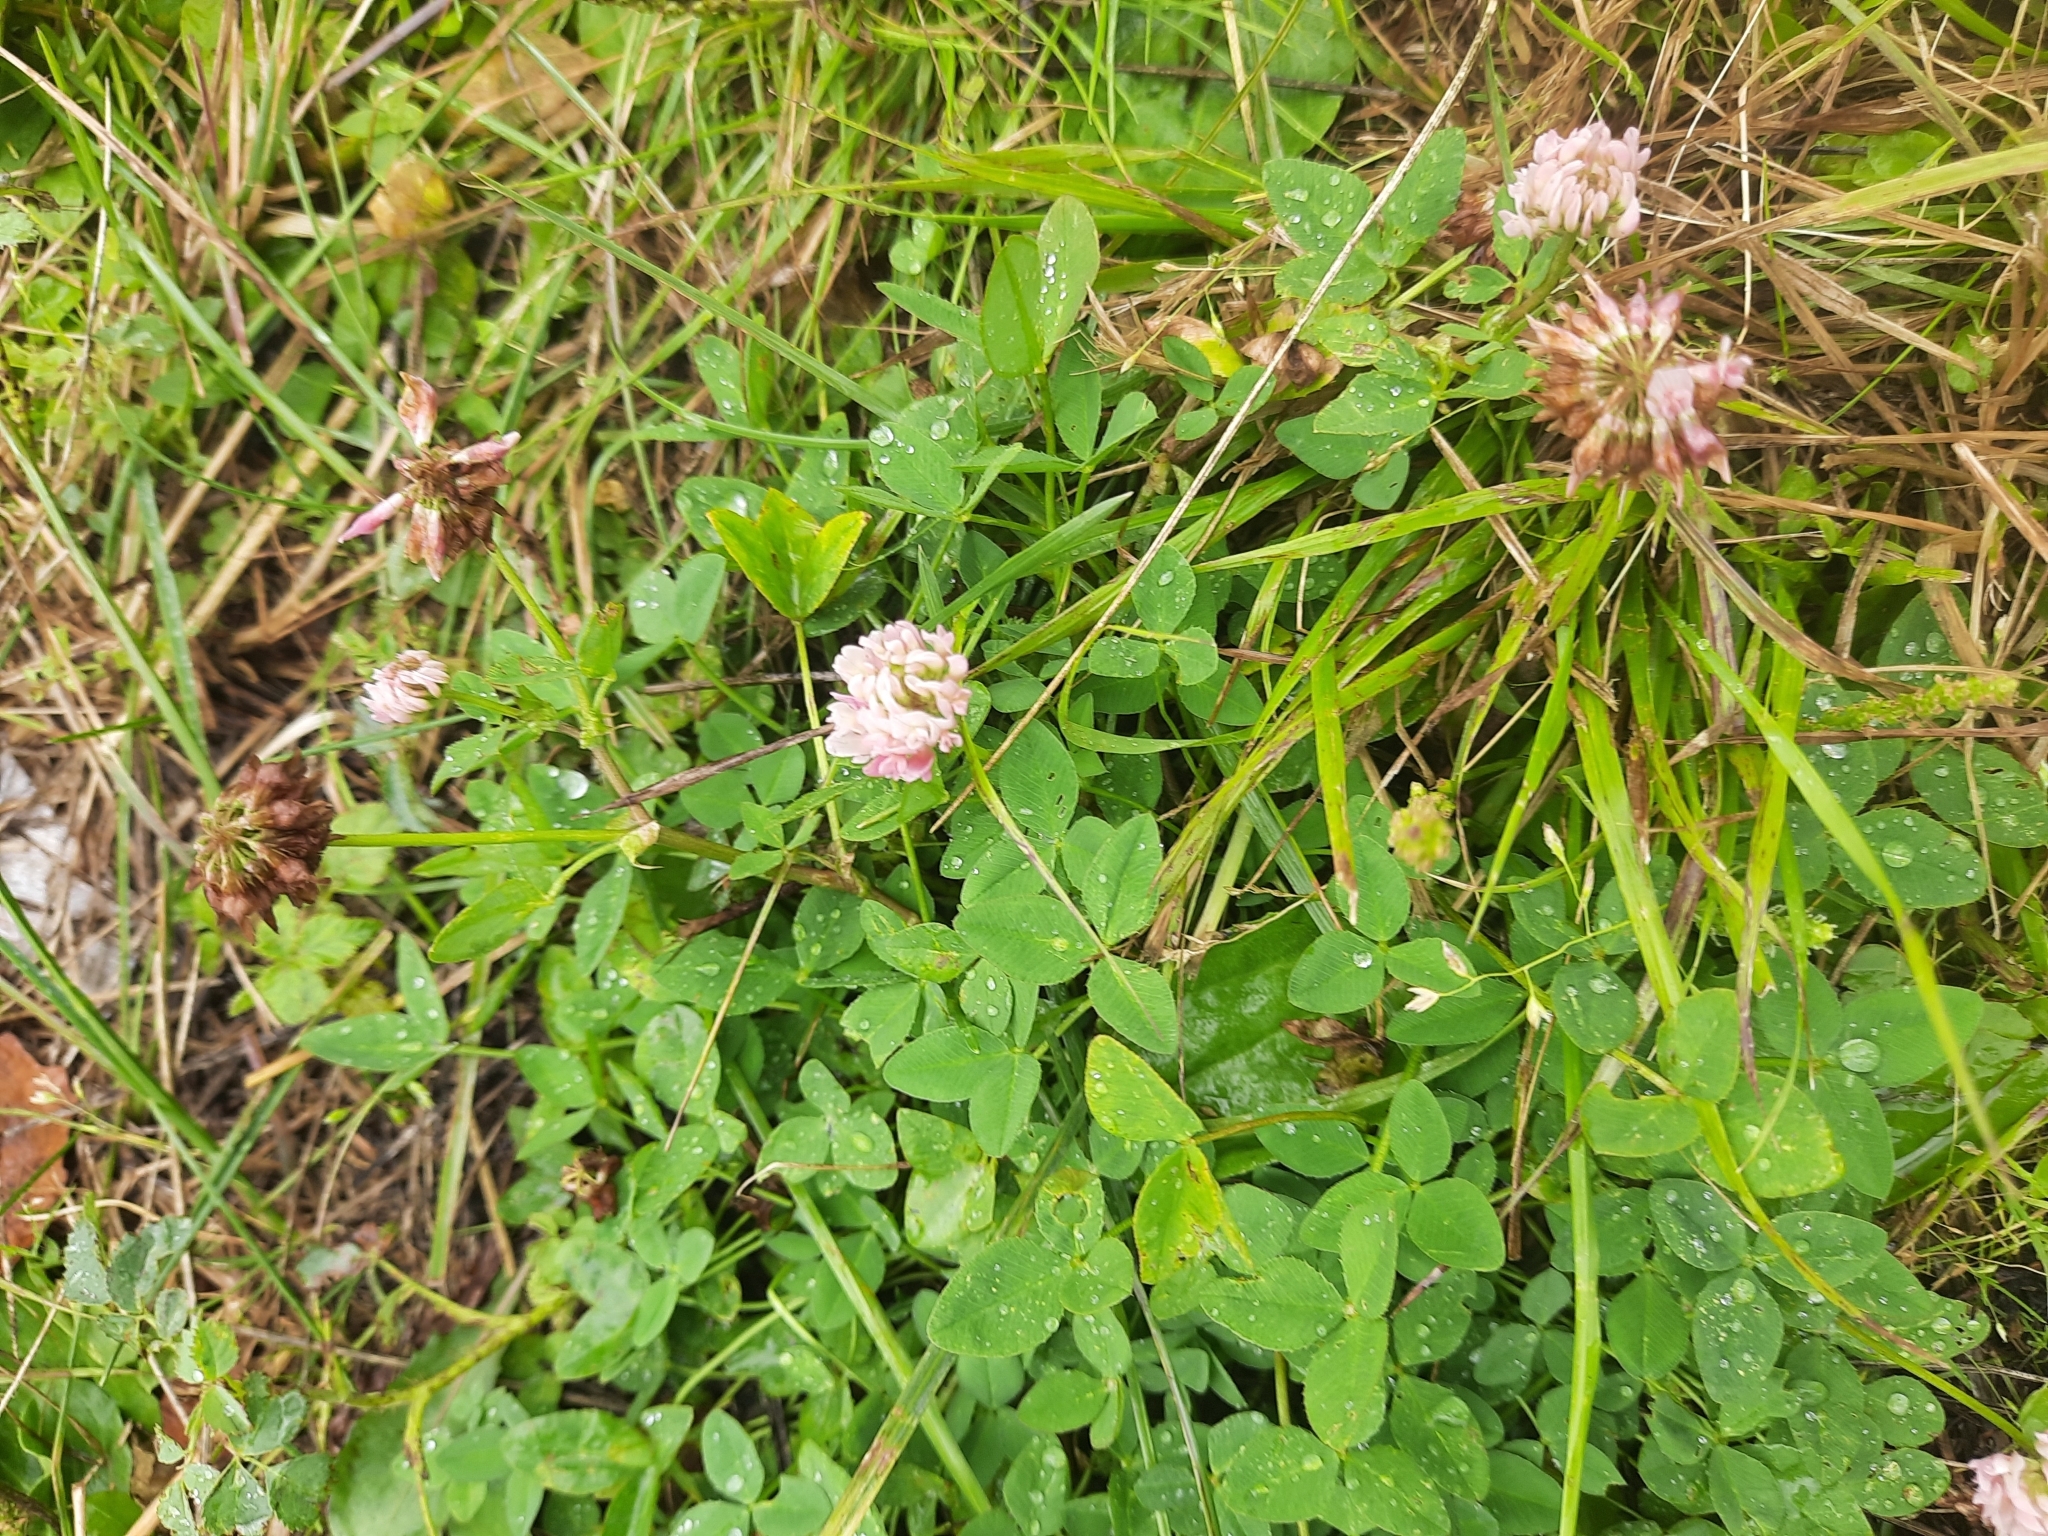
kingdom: Plantae
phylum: Tracheophyta
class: Magnoliopsida
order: Fabales
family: Fabaceae
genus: Trifolium
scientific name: Trifolium hybridum
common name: Alsike clover
